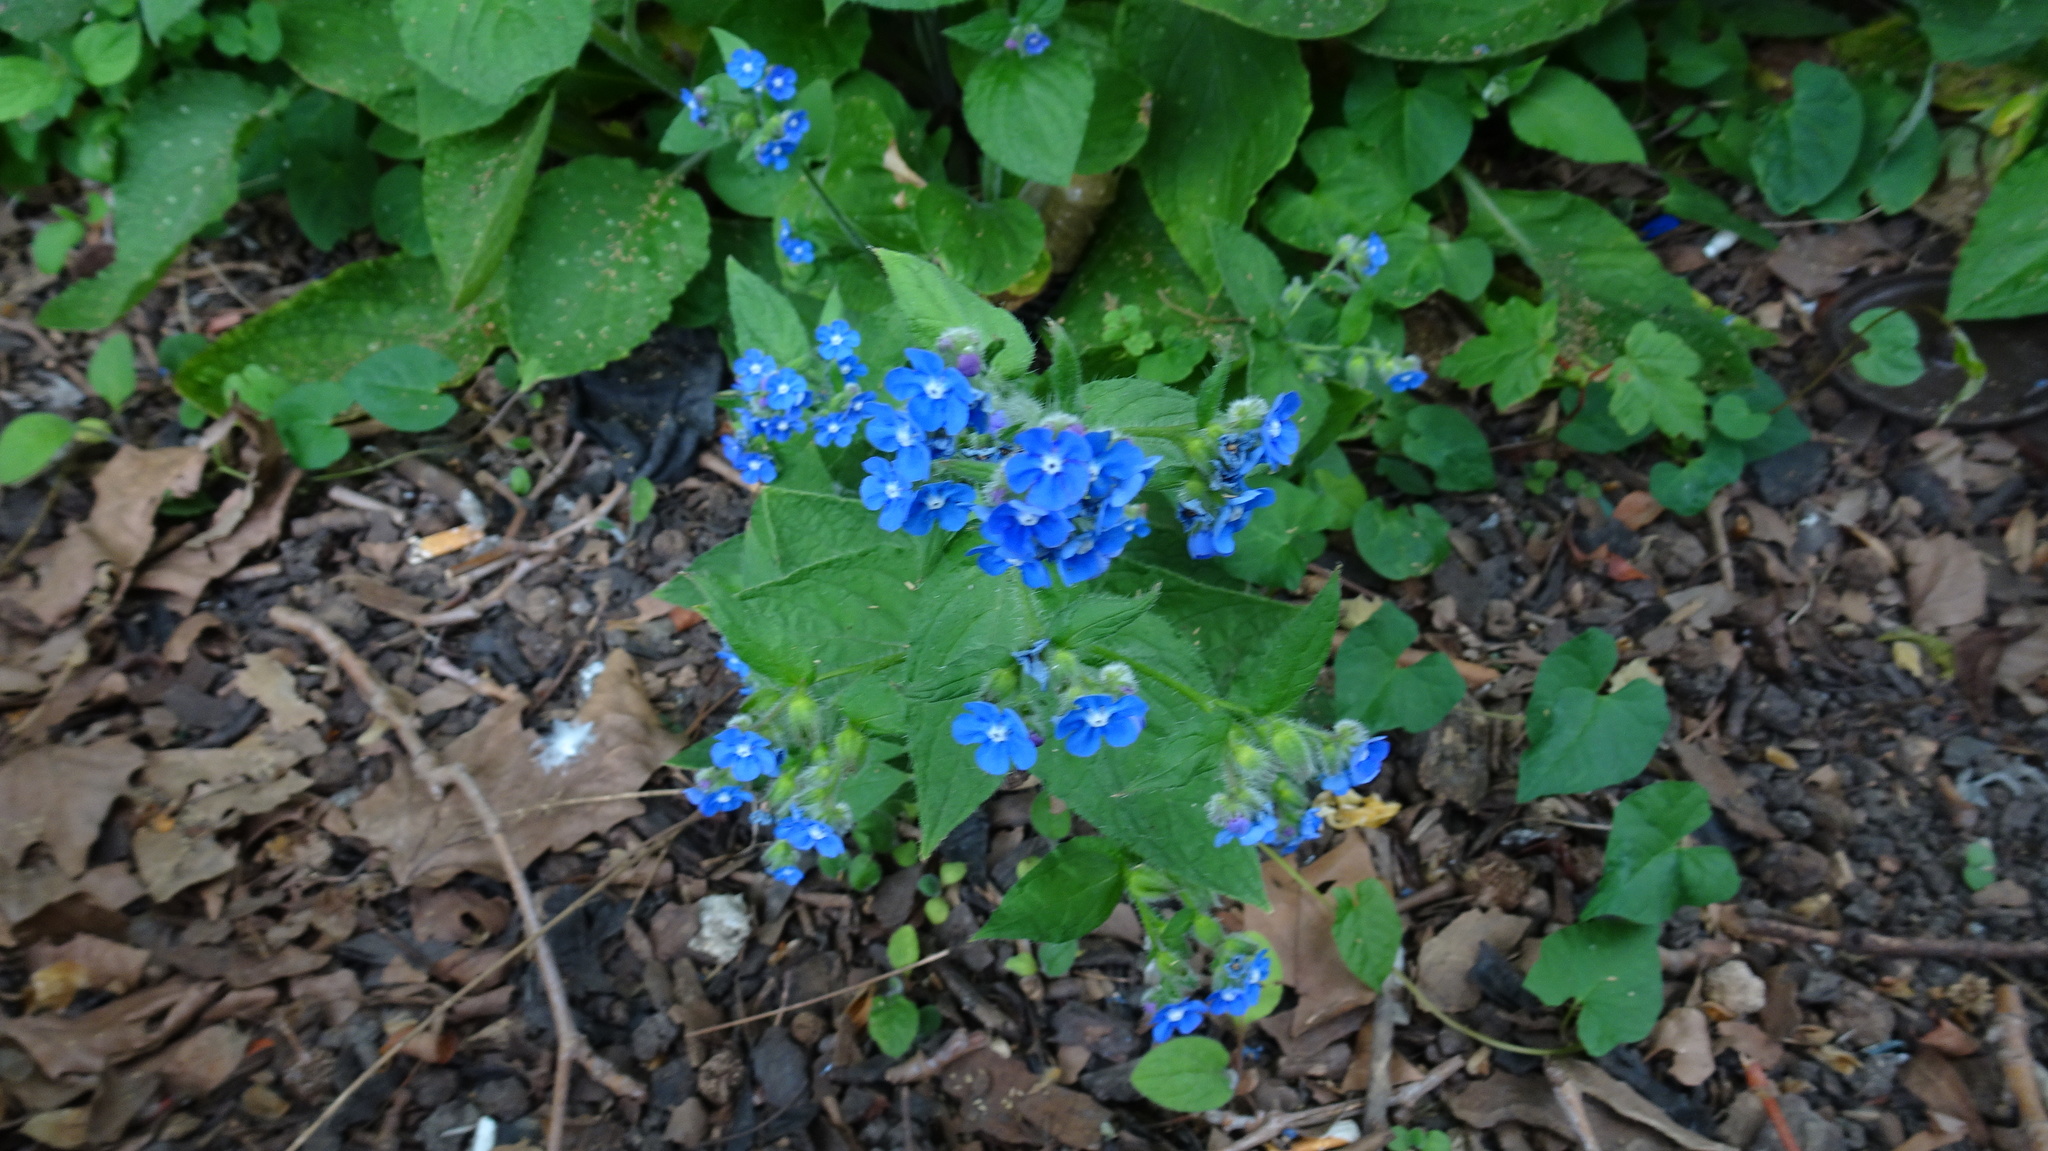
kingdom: Plantae
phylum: Tracheophyta
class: Magnoliopsida
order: Boraginales
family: Boraginaceae
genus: Pentaglottis
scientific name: Pentaglottis sempervirens
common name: Green alkanet
